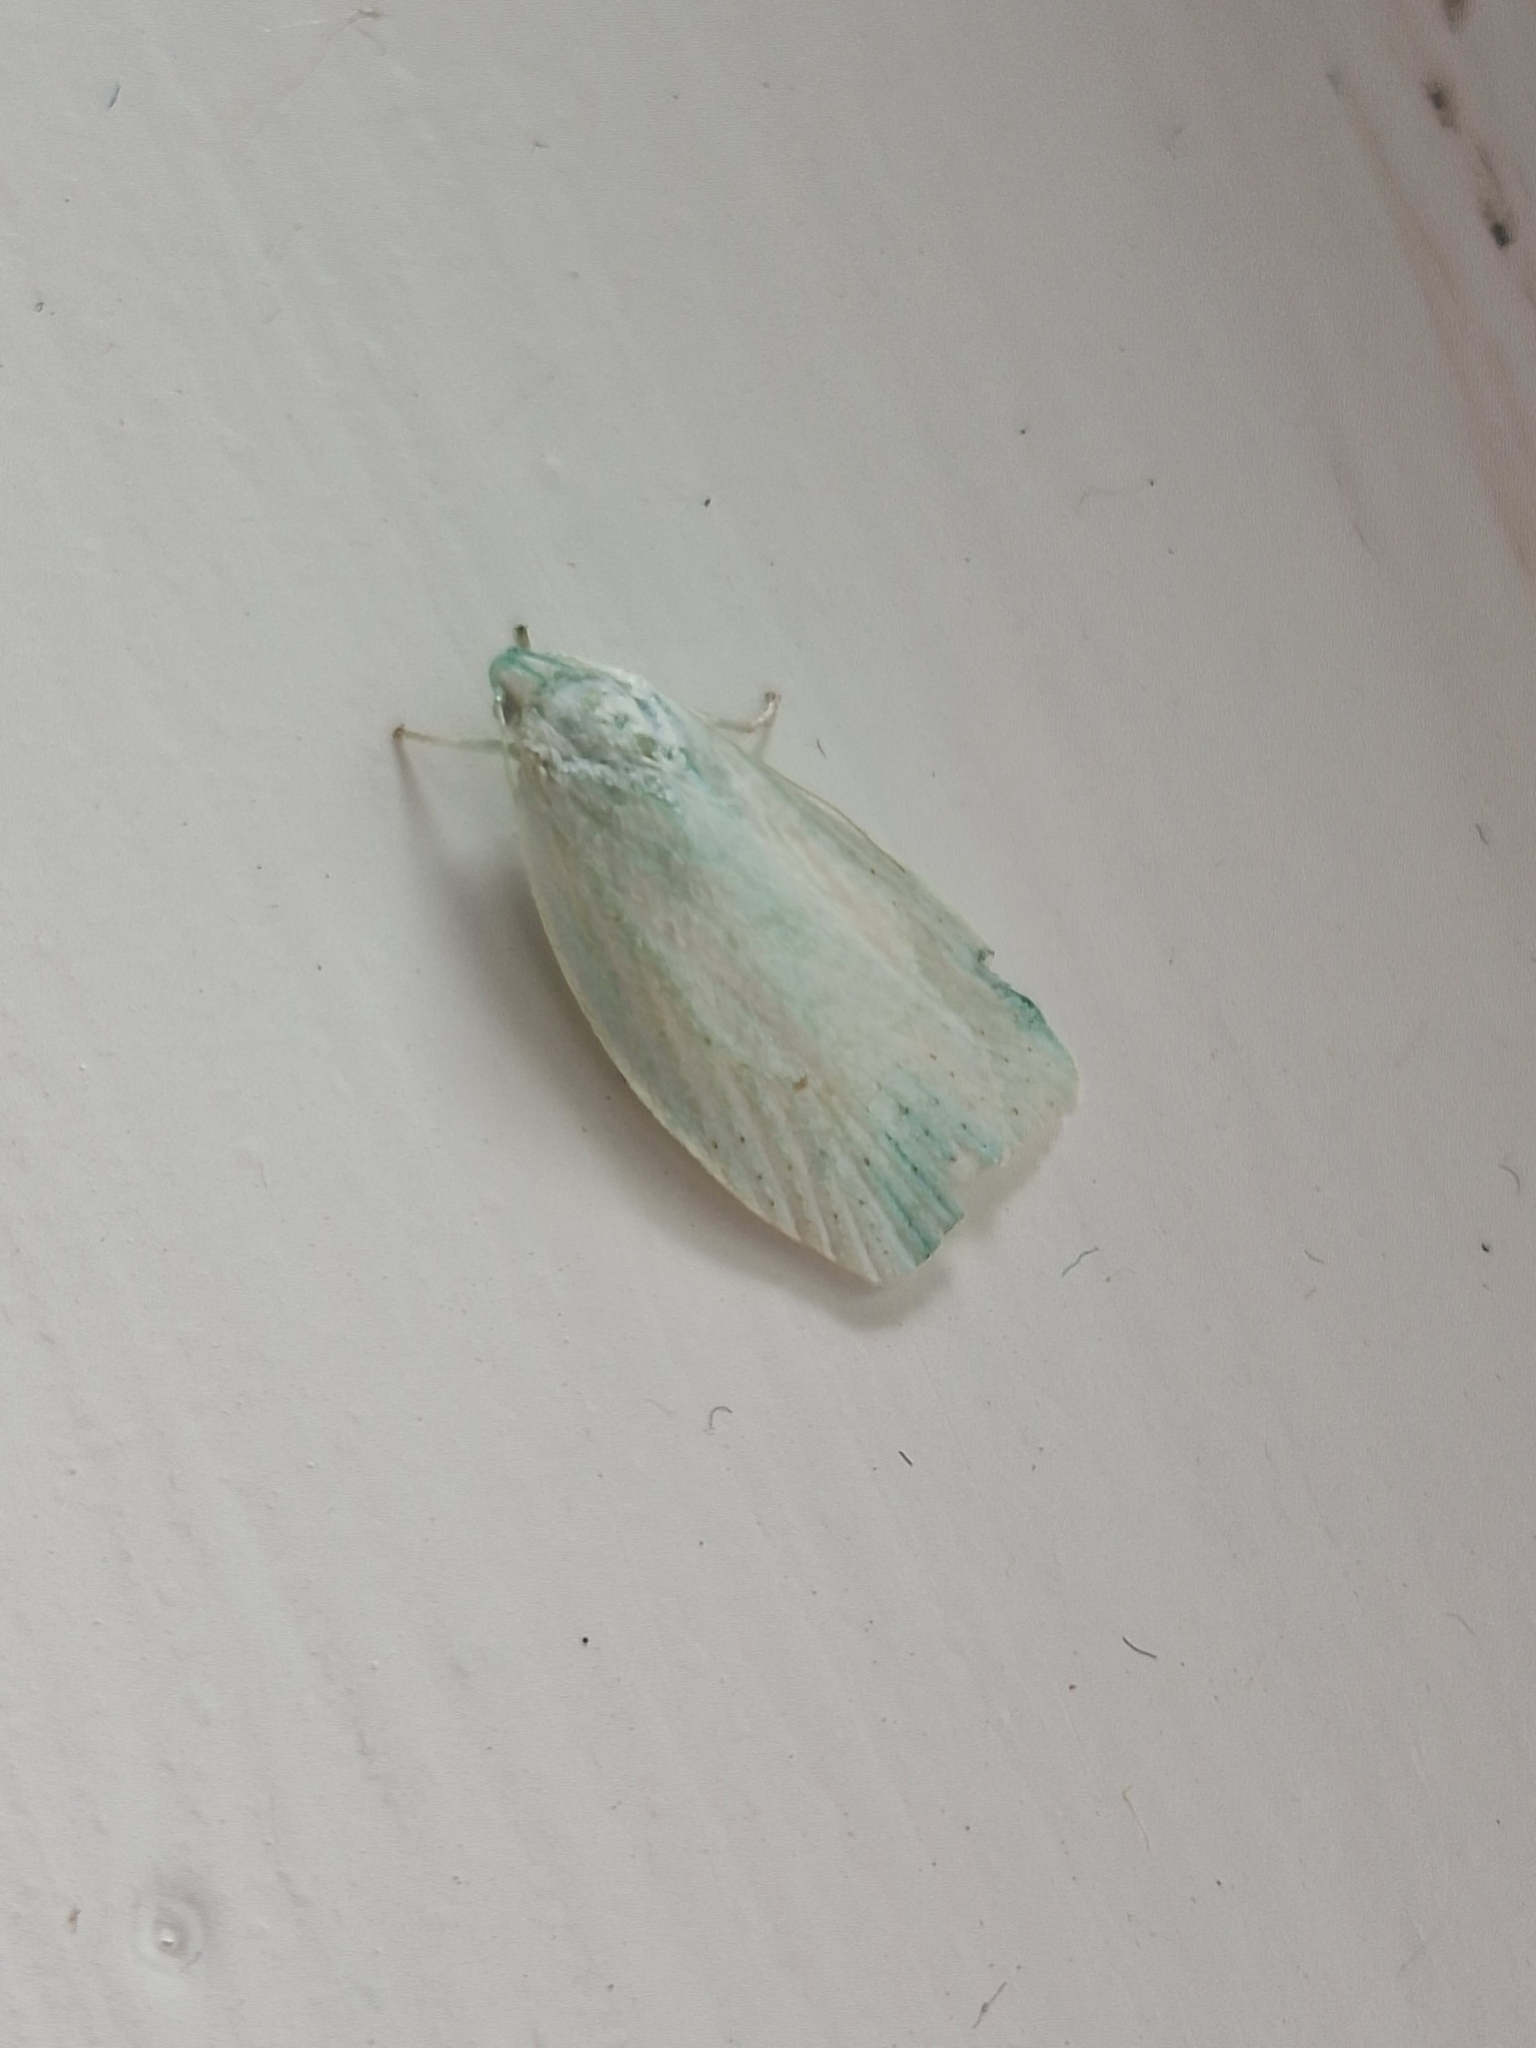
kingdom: Animalia
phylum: Arthropoda
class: Insecta
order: Lepidoptera
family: Oecophoridae
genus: Nymphostola
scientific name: Nymphostola galactina
